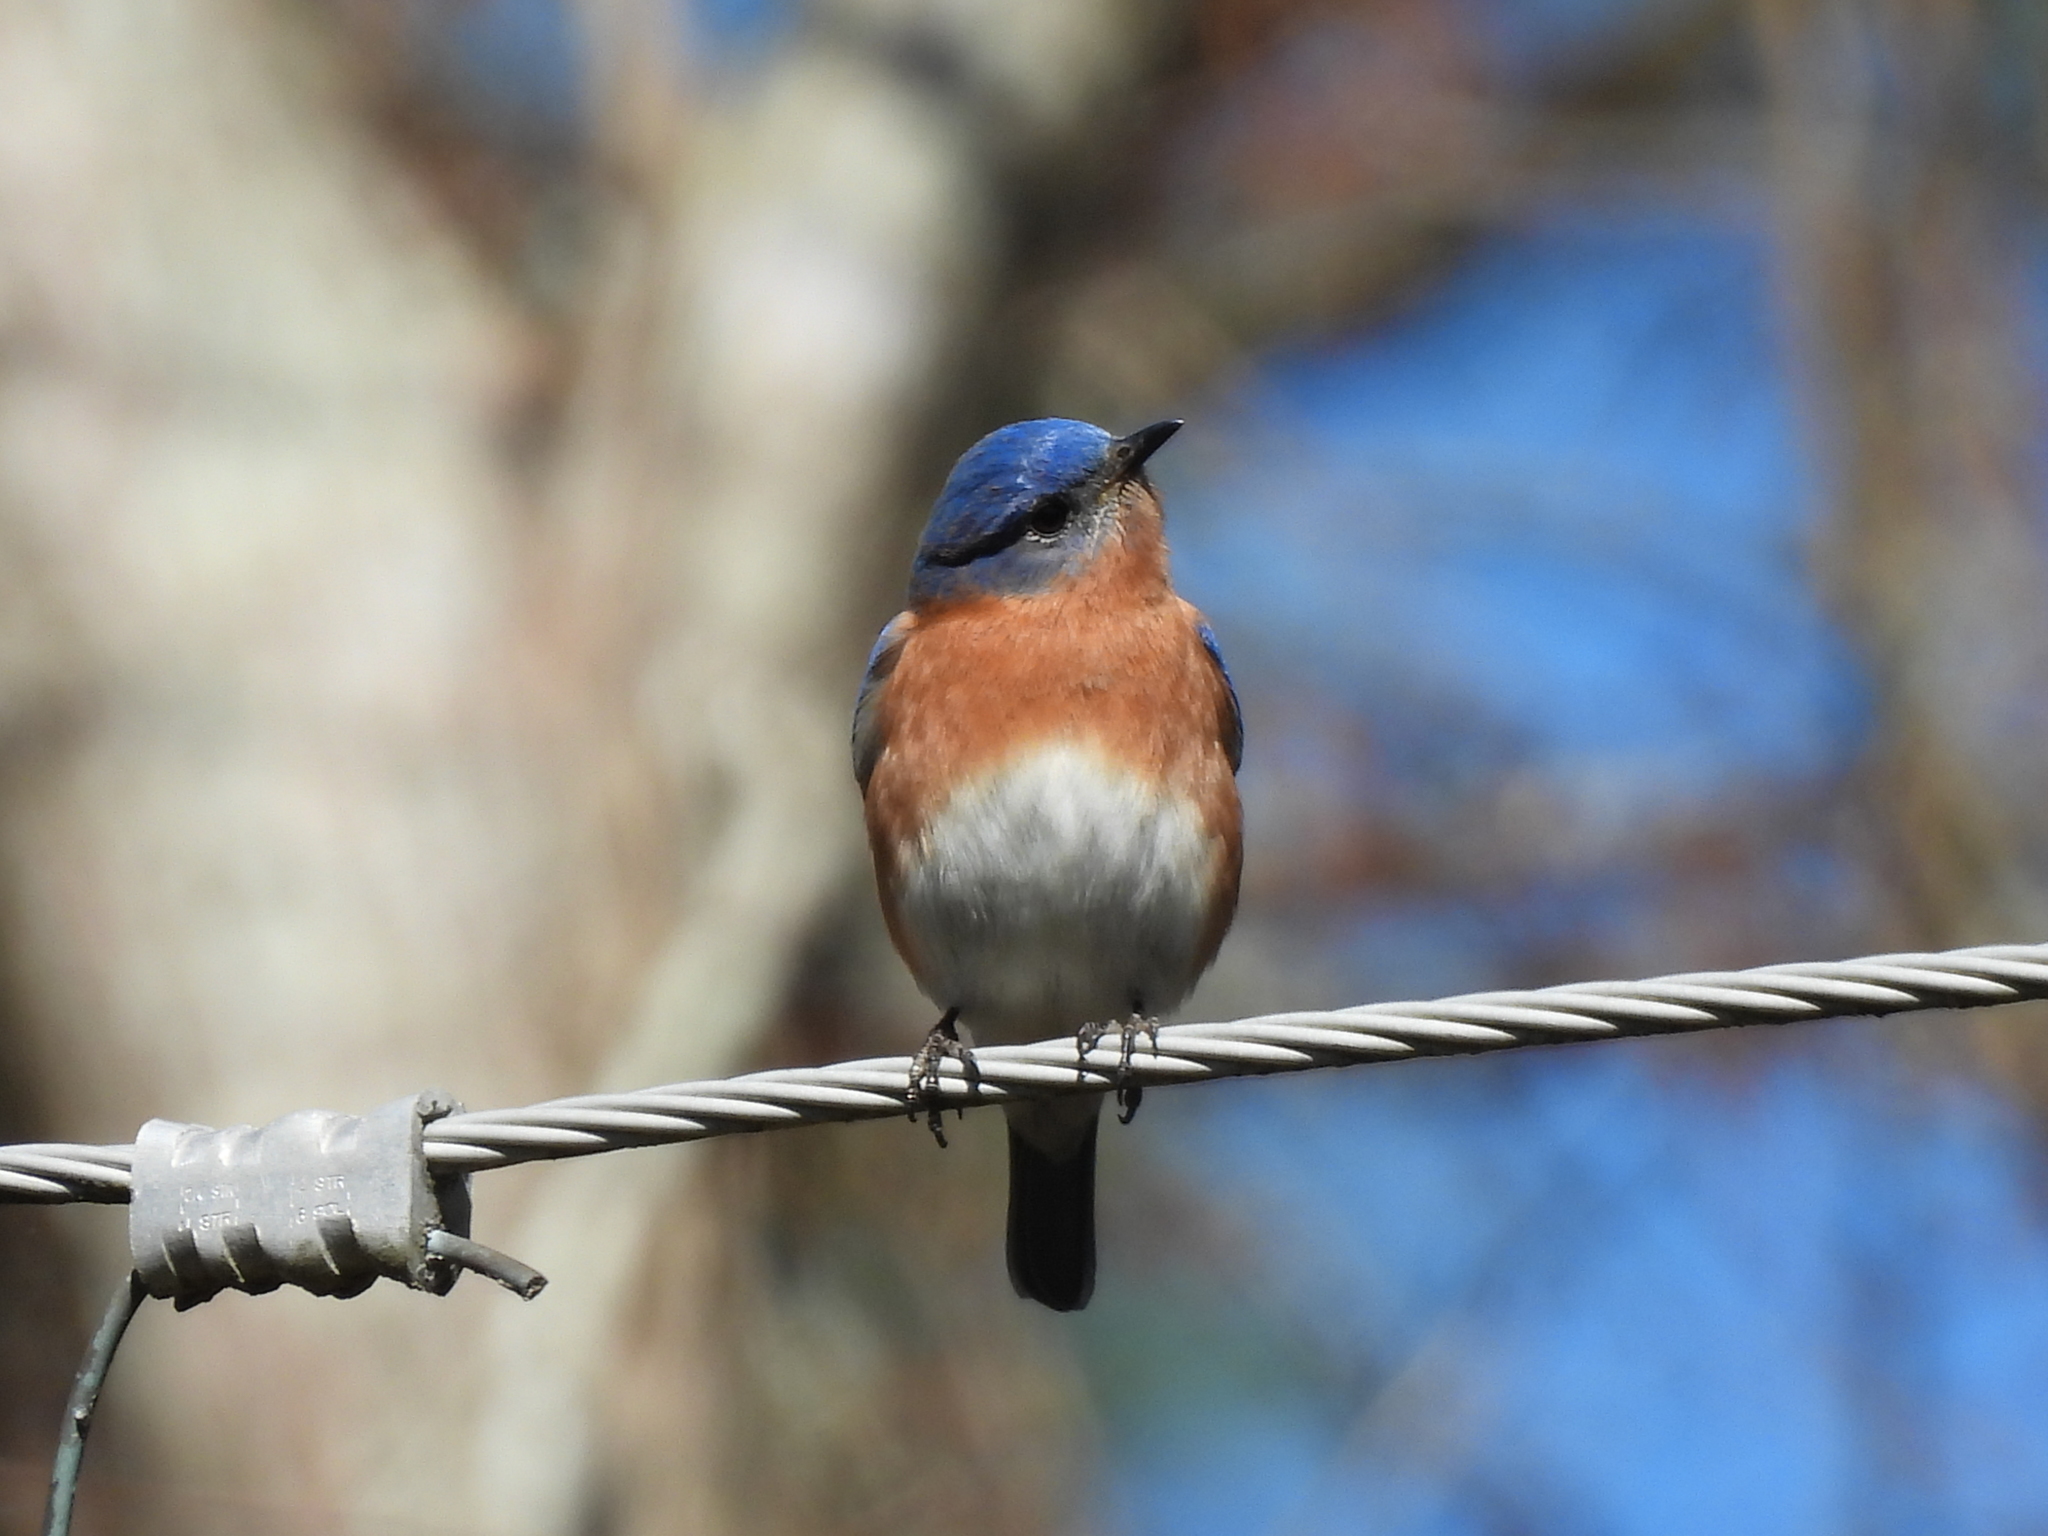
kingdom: Animalia
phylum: Chordata
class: Aves
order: Passeriformes
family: Turdidae
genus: Sialia
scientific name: Sialia sialis
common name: Eastern bluebird
